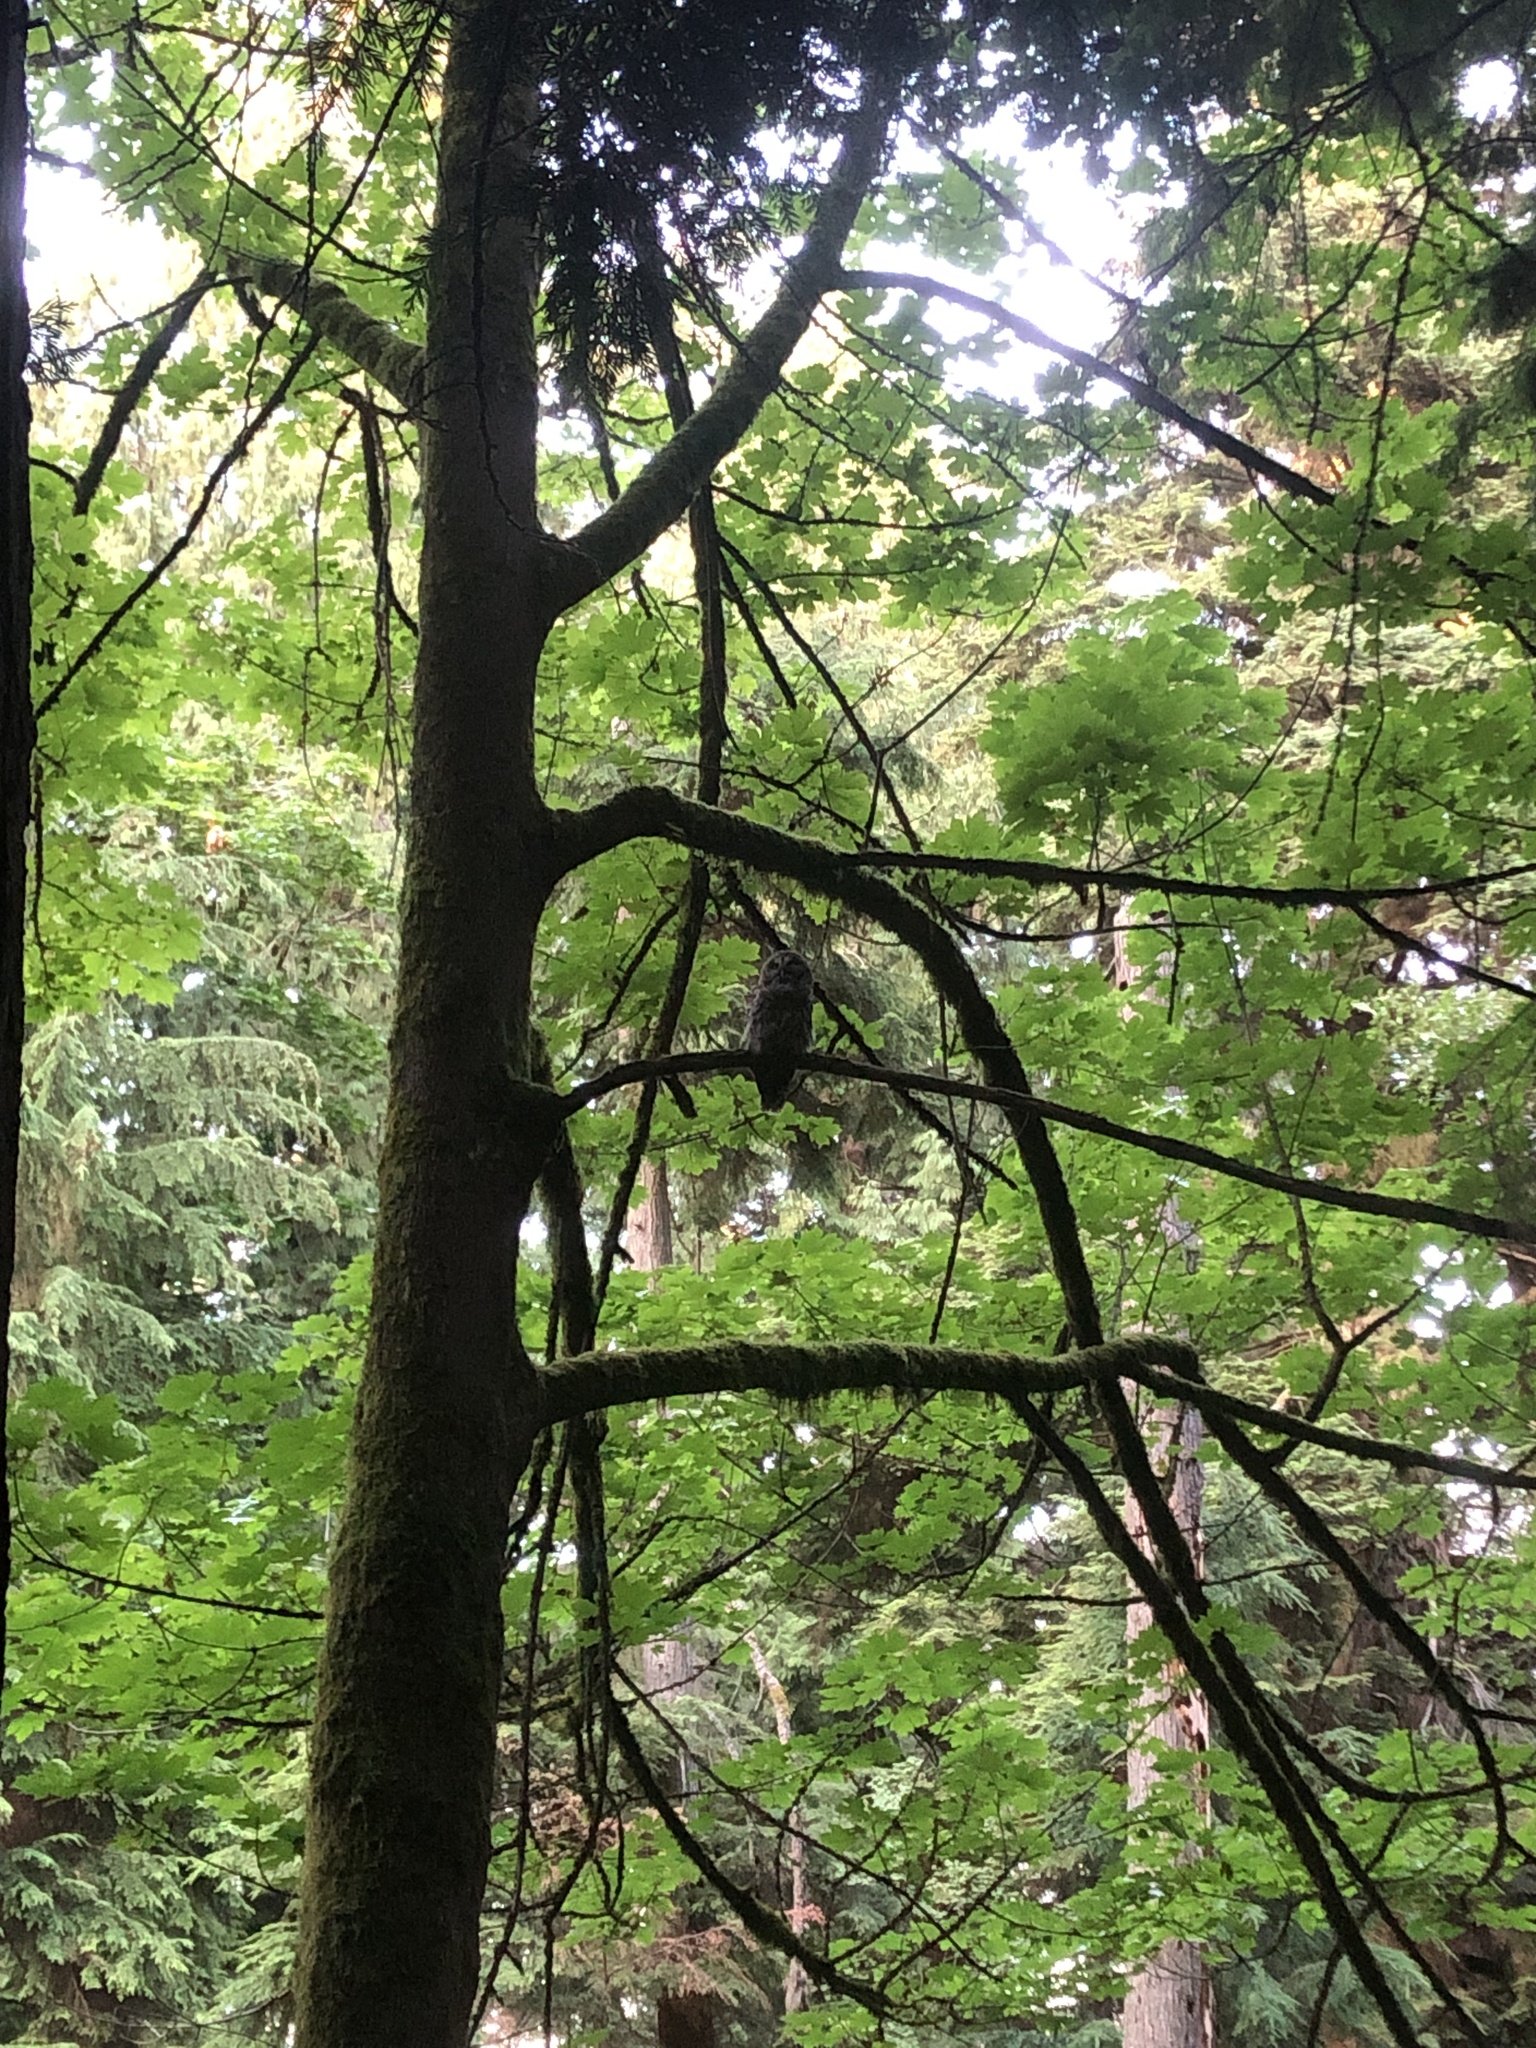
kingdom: Animalia
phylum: Chordata
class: Aves
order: Strigiformes
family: Strigidae
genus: Strix
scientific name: Strix varia
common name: Barred owl
